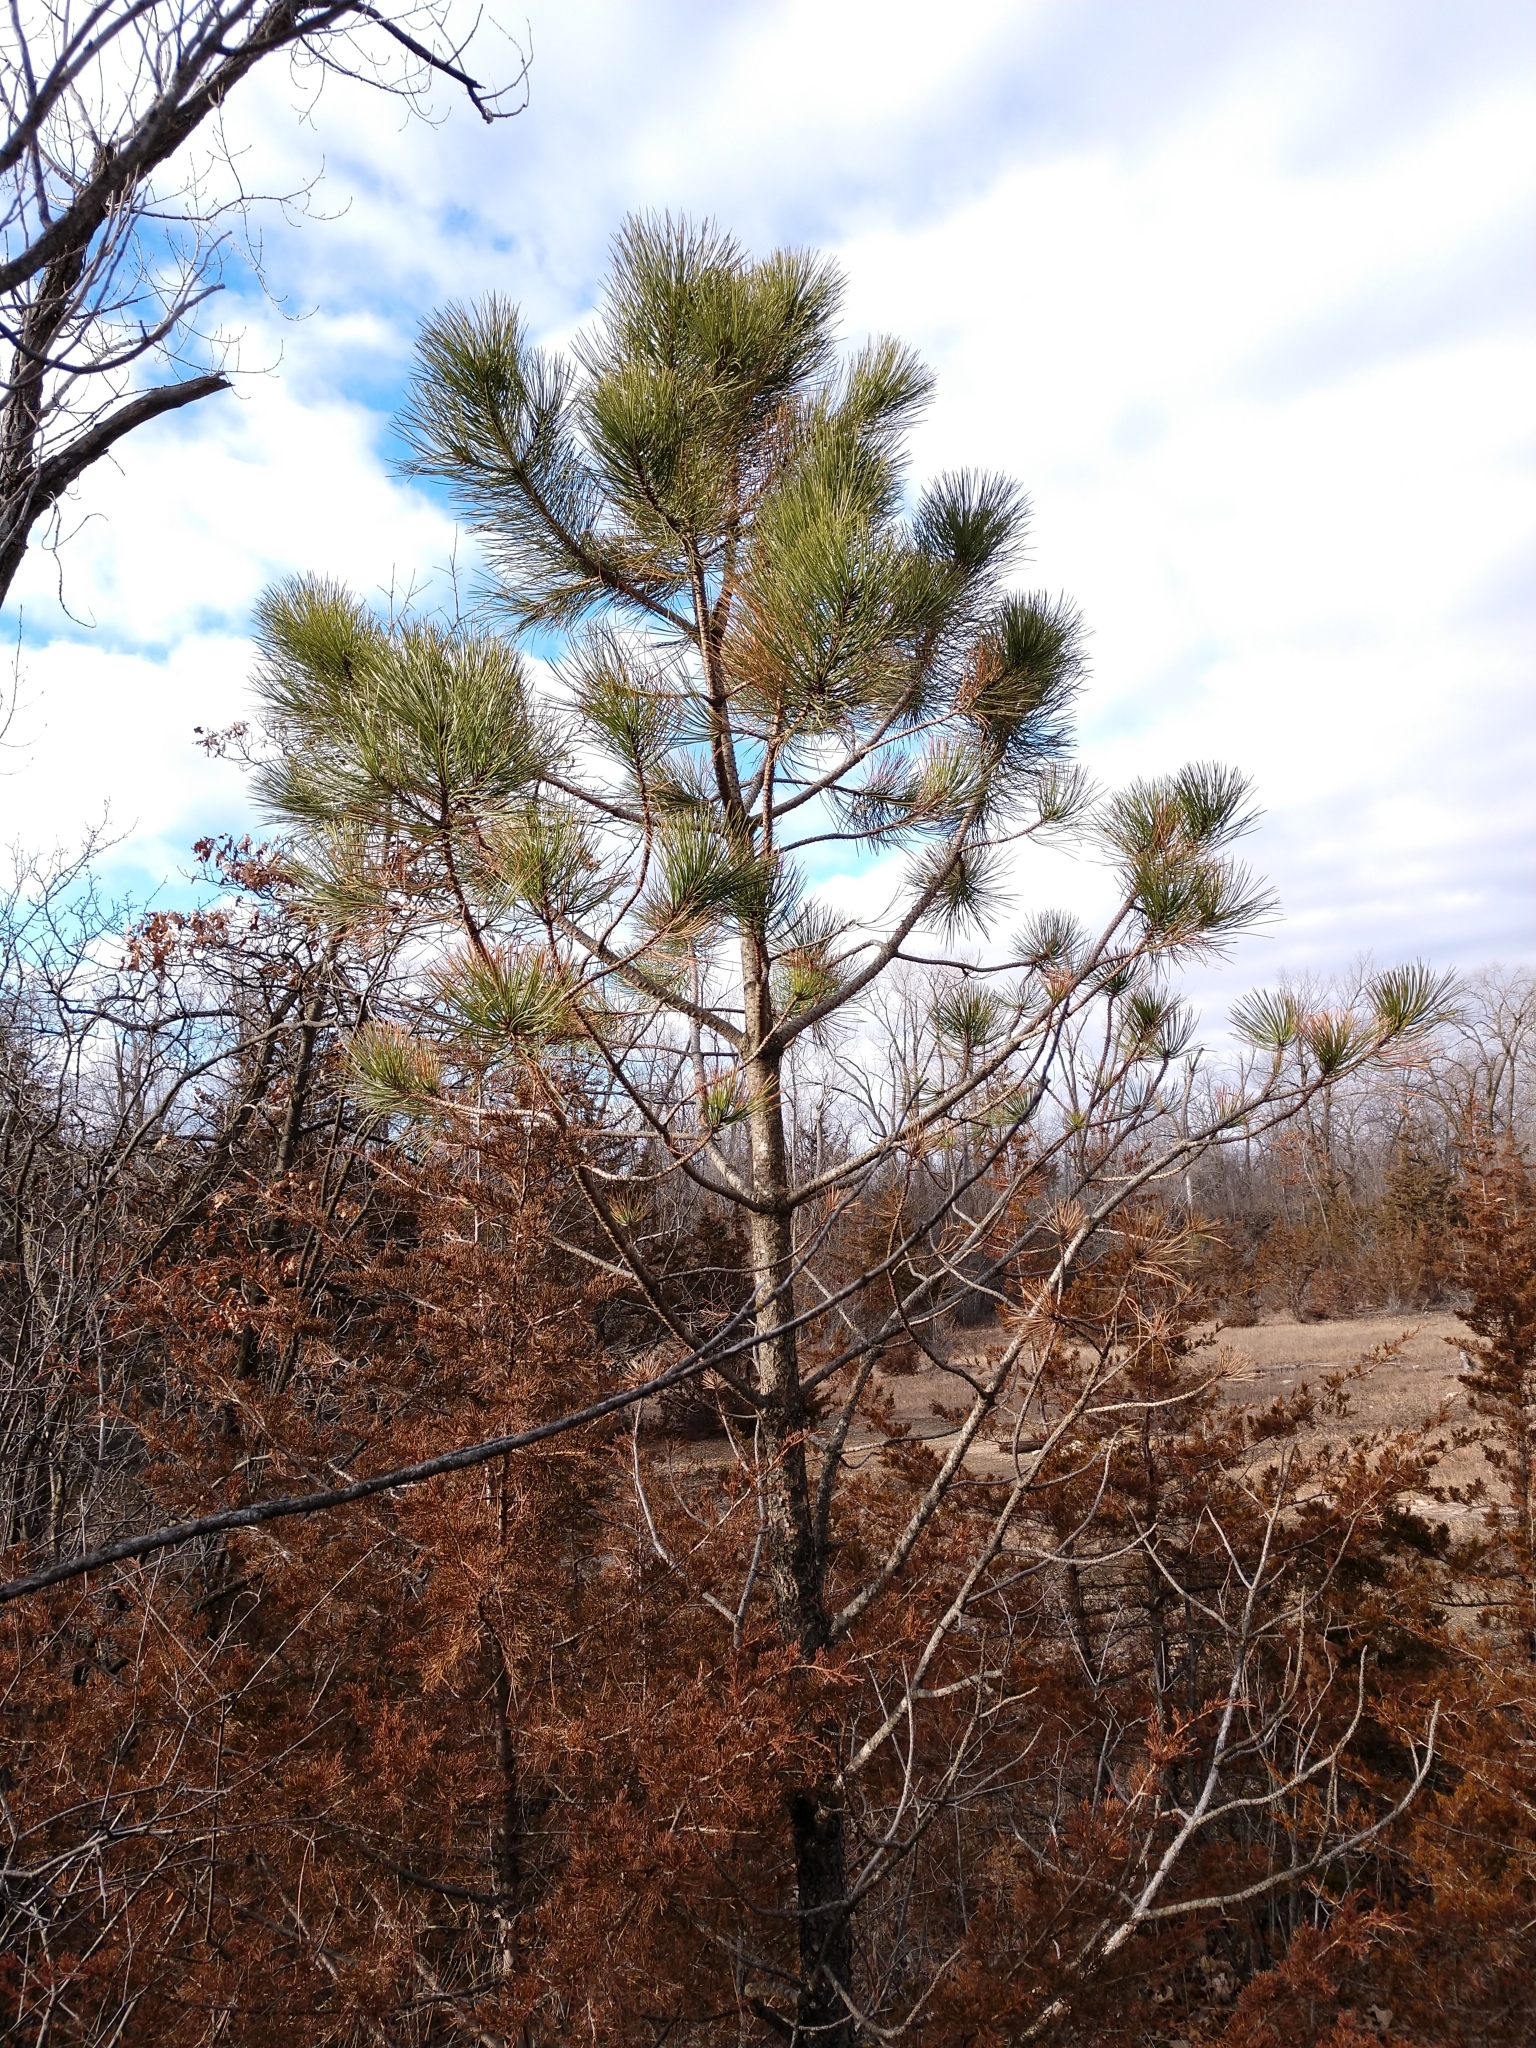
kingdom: Plantae
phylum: Tracheophyta
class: Pinopsida
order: Pinales
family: Pinaceae
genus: Pinus
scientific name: Pinus resinosa
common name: Norway pine
